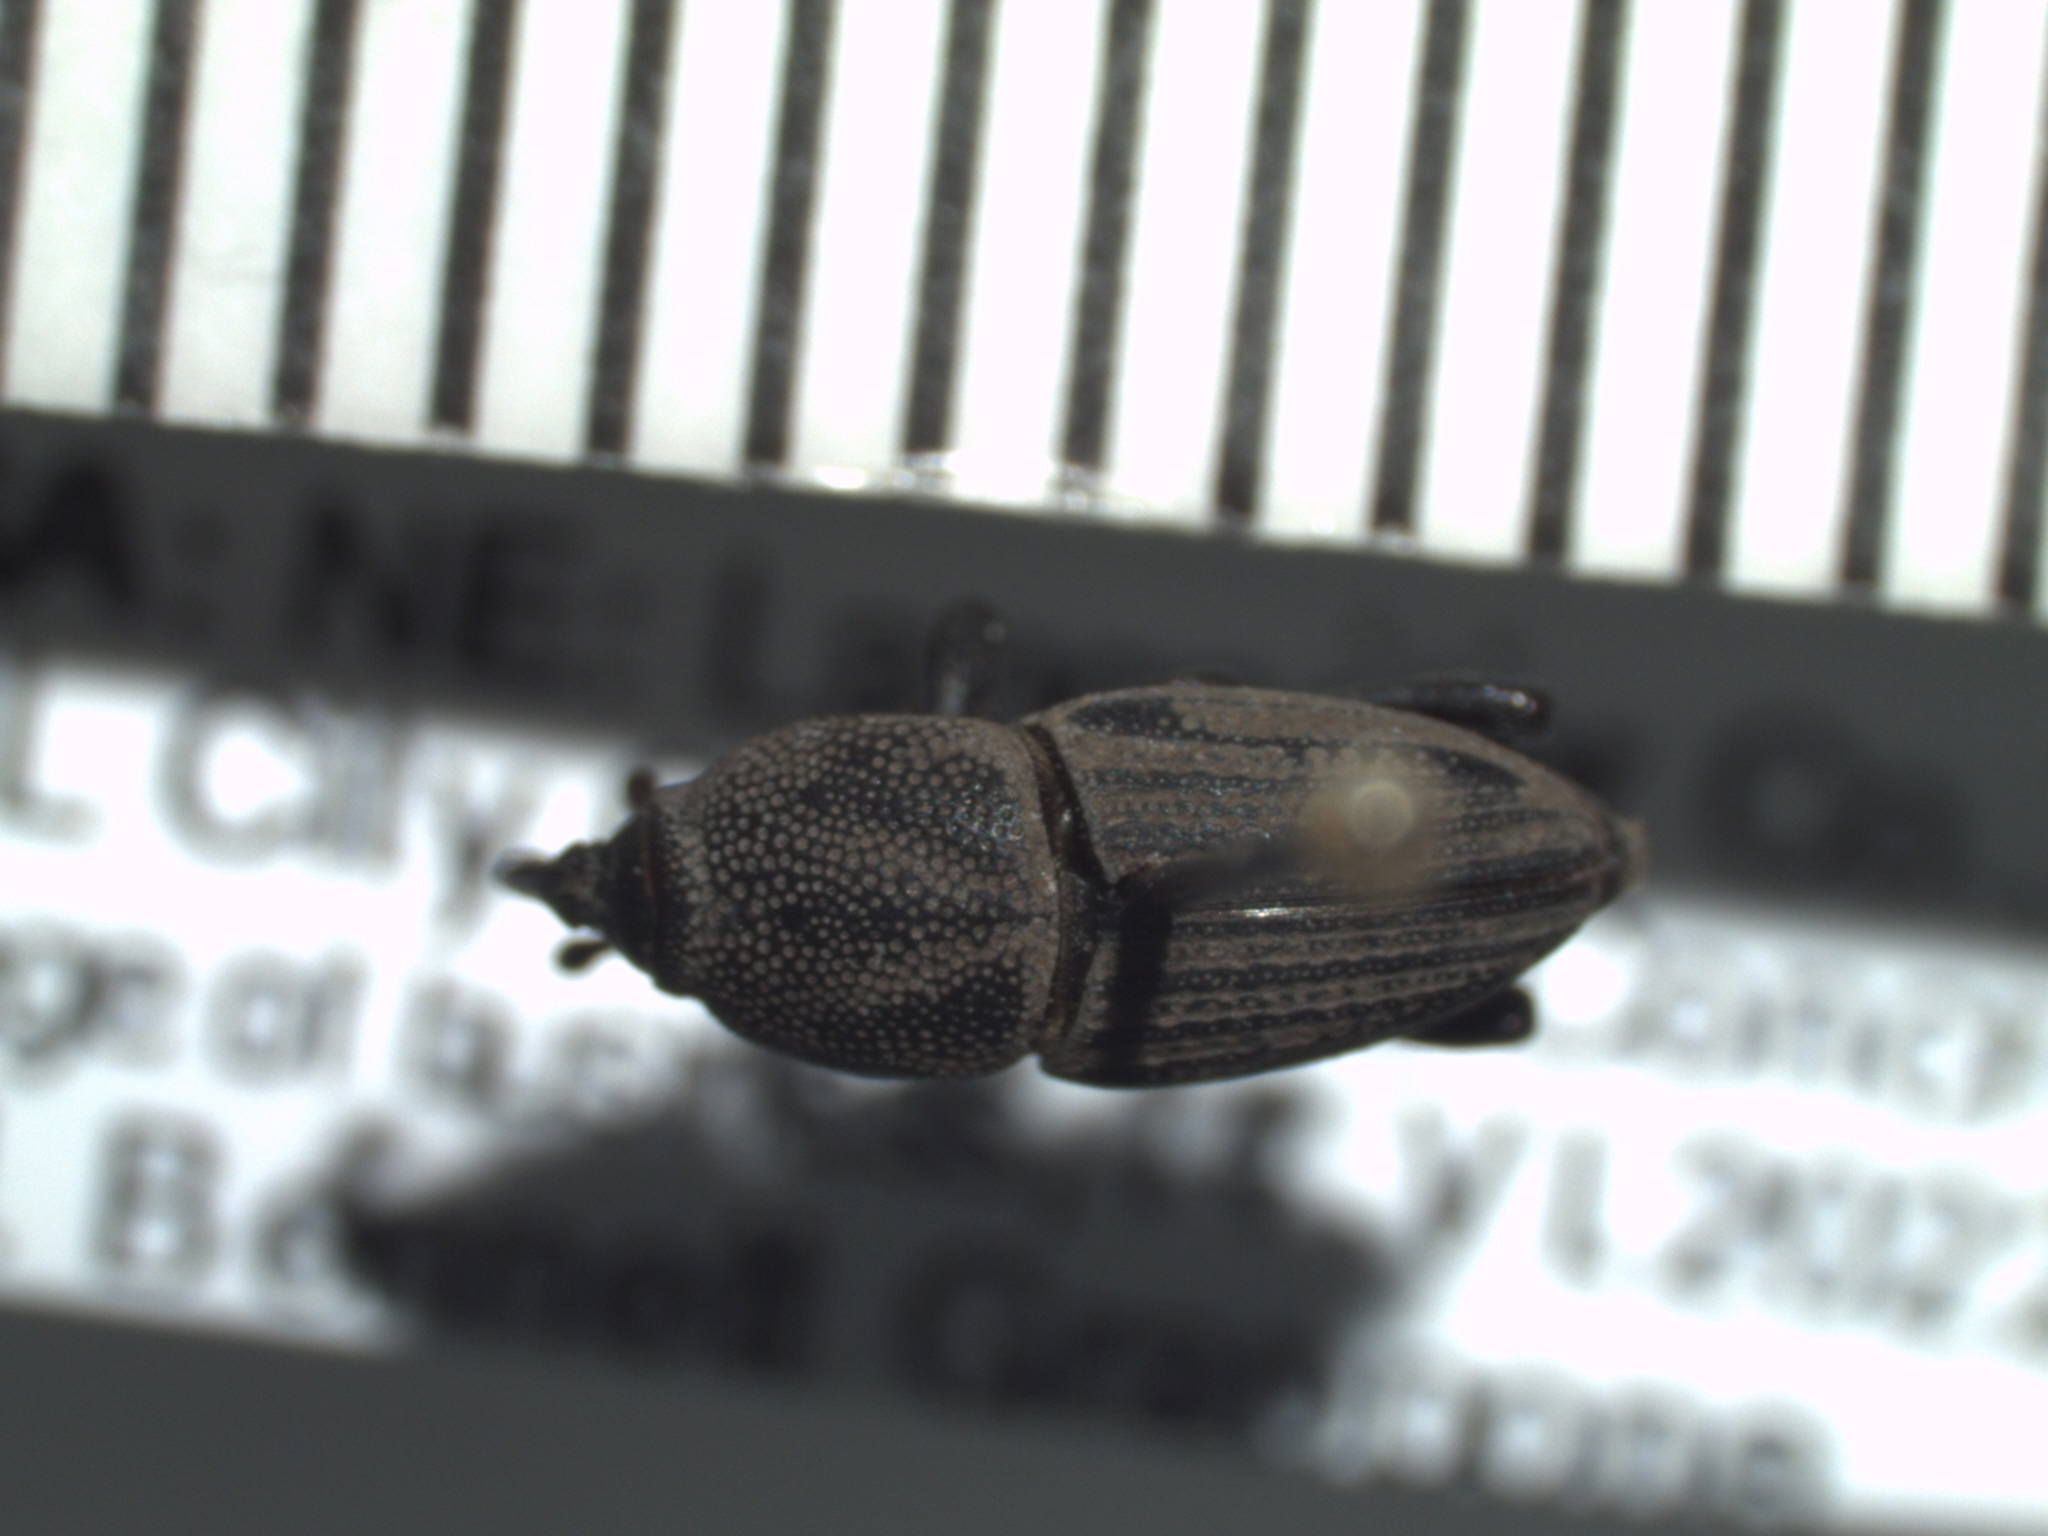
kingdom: Animalia
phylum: Arthropoda
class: Insecta
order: Coleoptera
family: Dryophthoridae
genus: Sphenophorus
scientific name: Sphenophorus interstitialis
